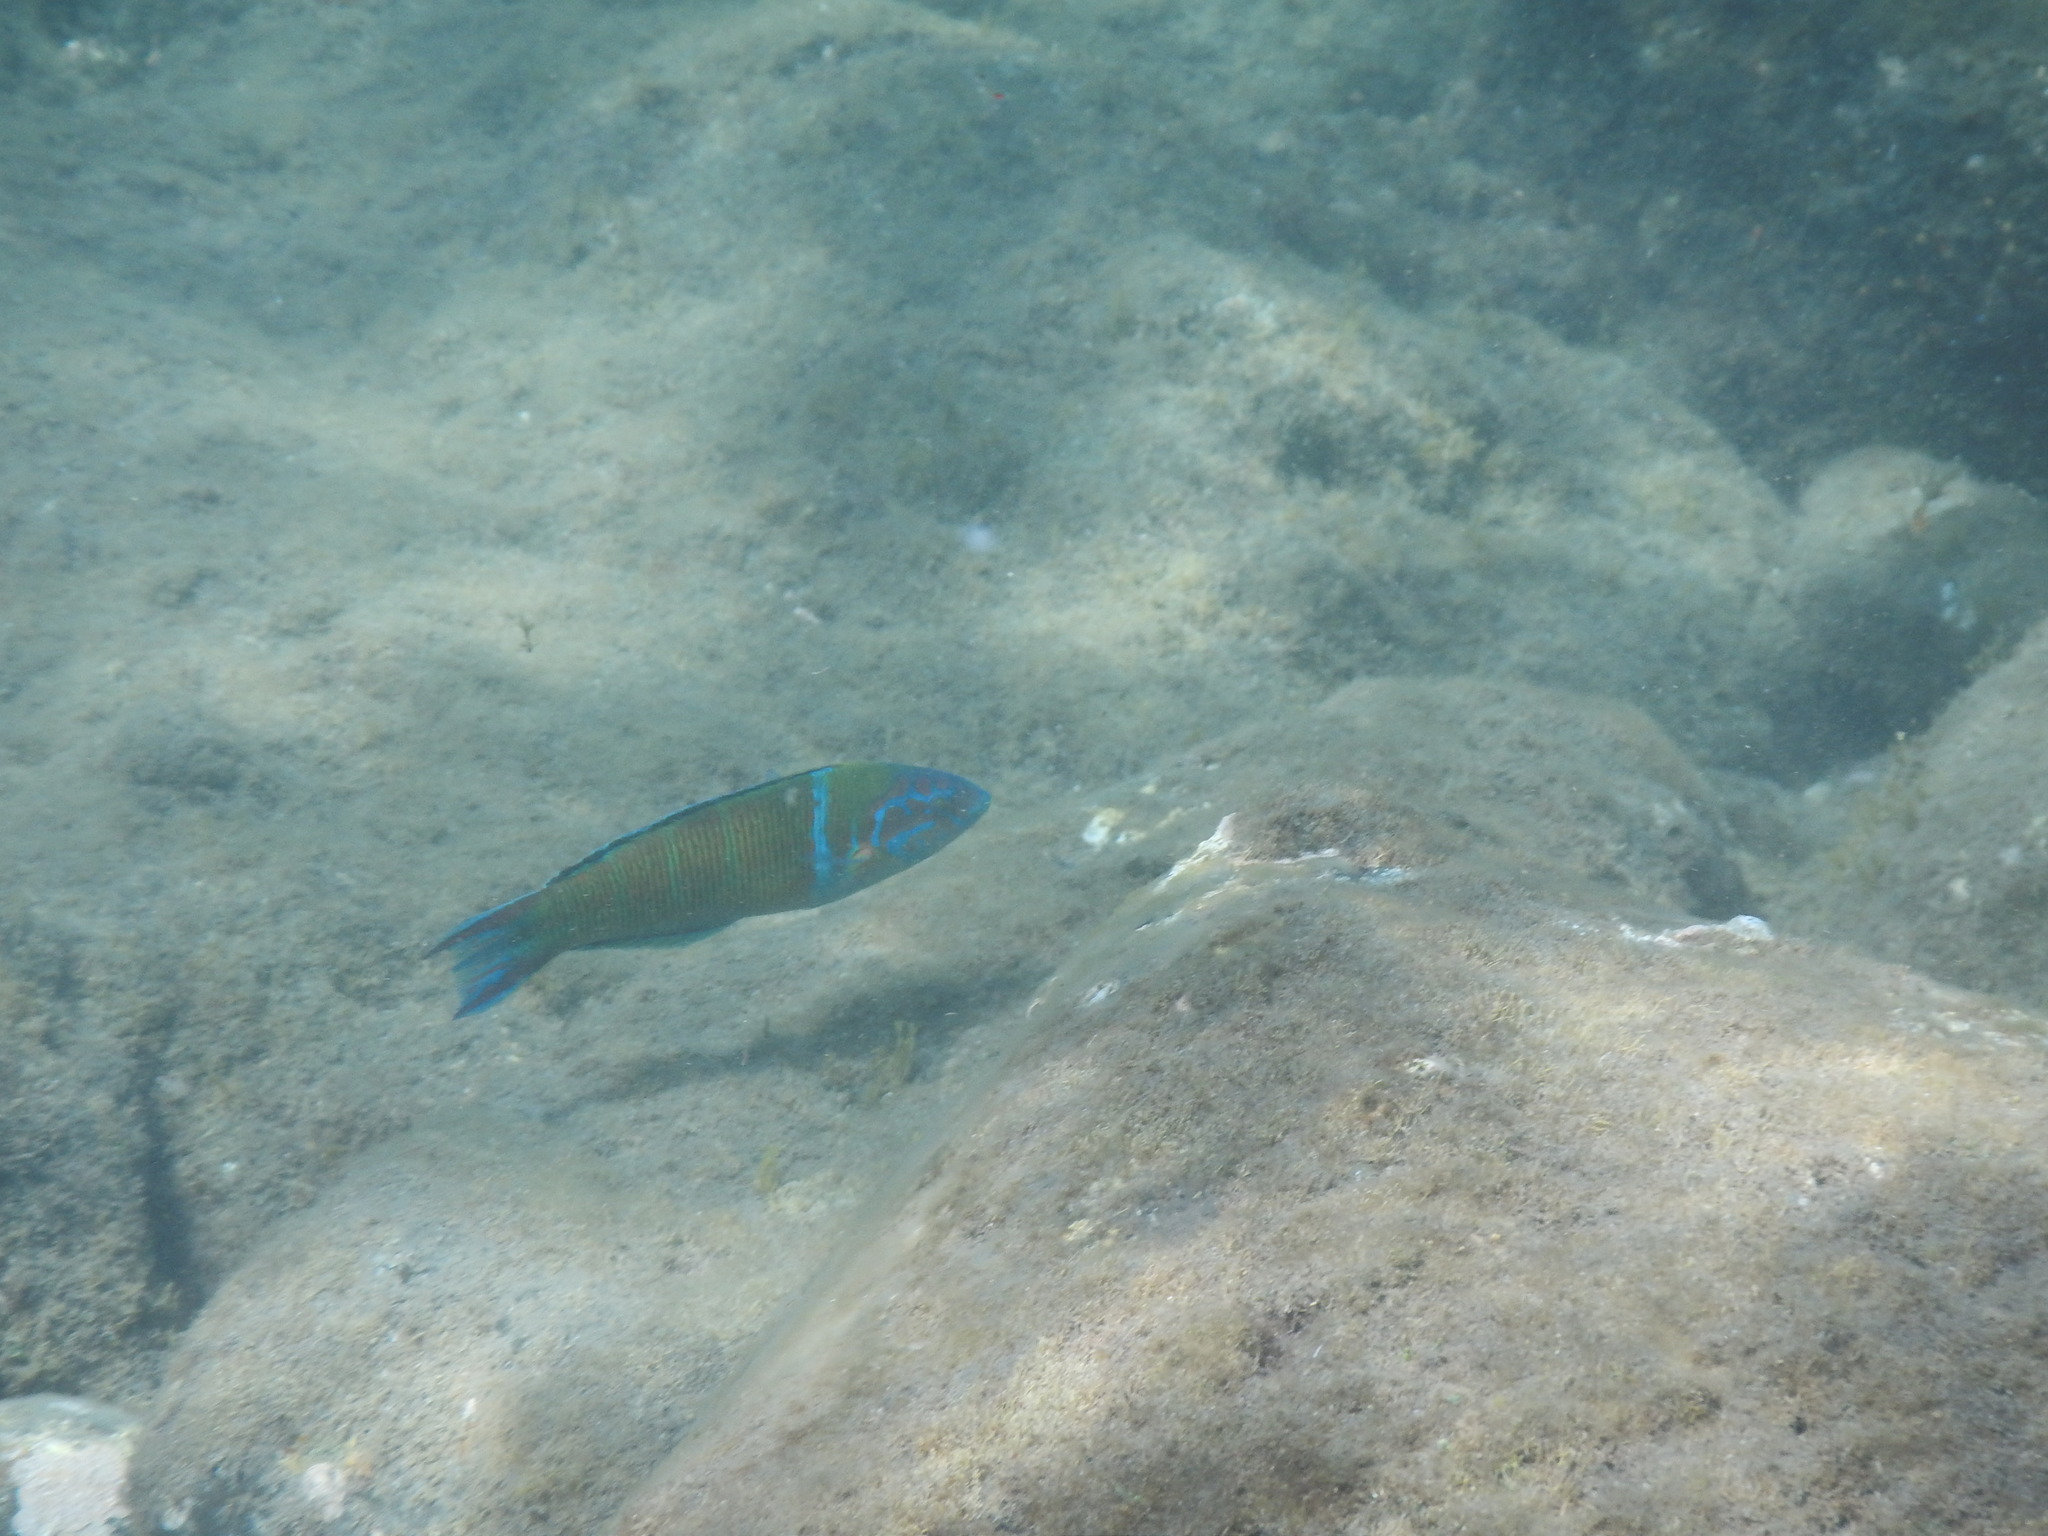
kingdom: Animalia
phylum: Chordata
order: Perciformes
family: Labridae
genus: Thalassoma
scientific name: Thalassoma pavo
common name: Ornate wrasse
